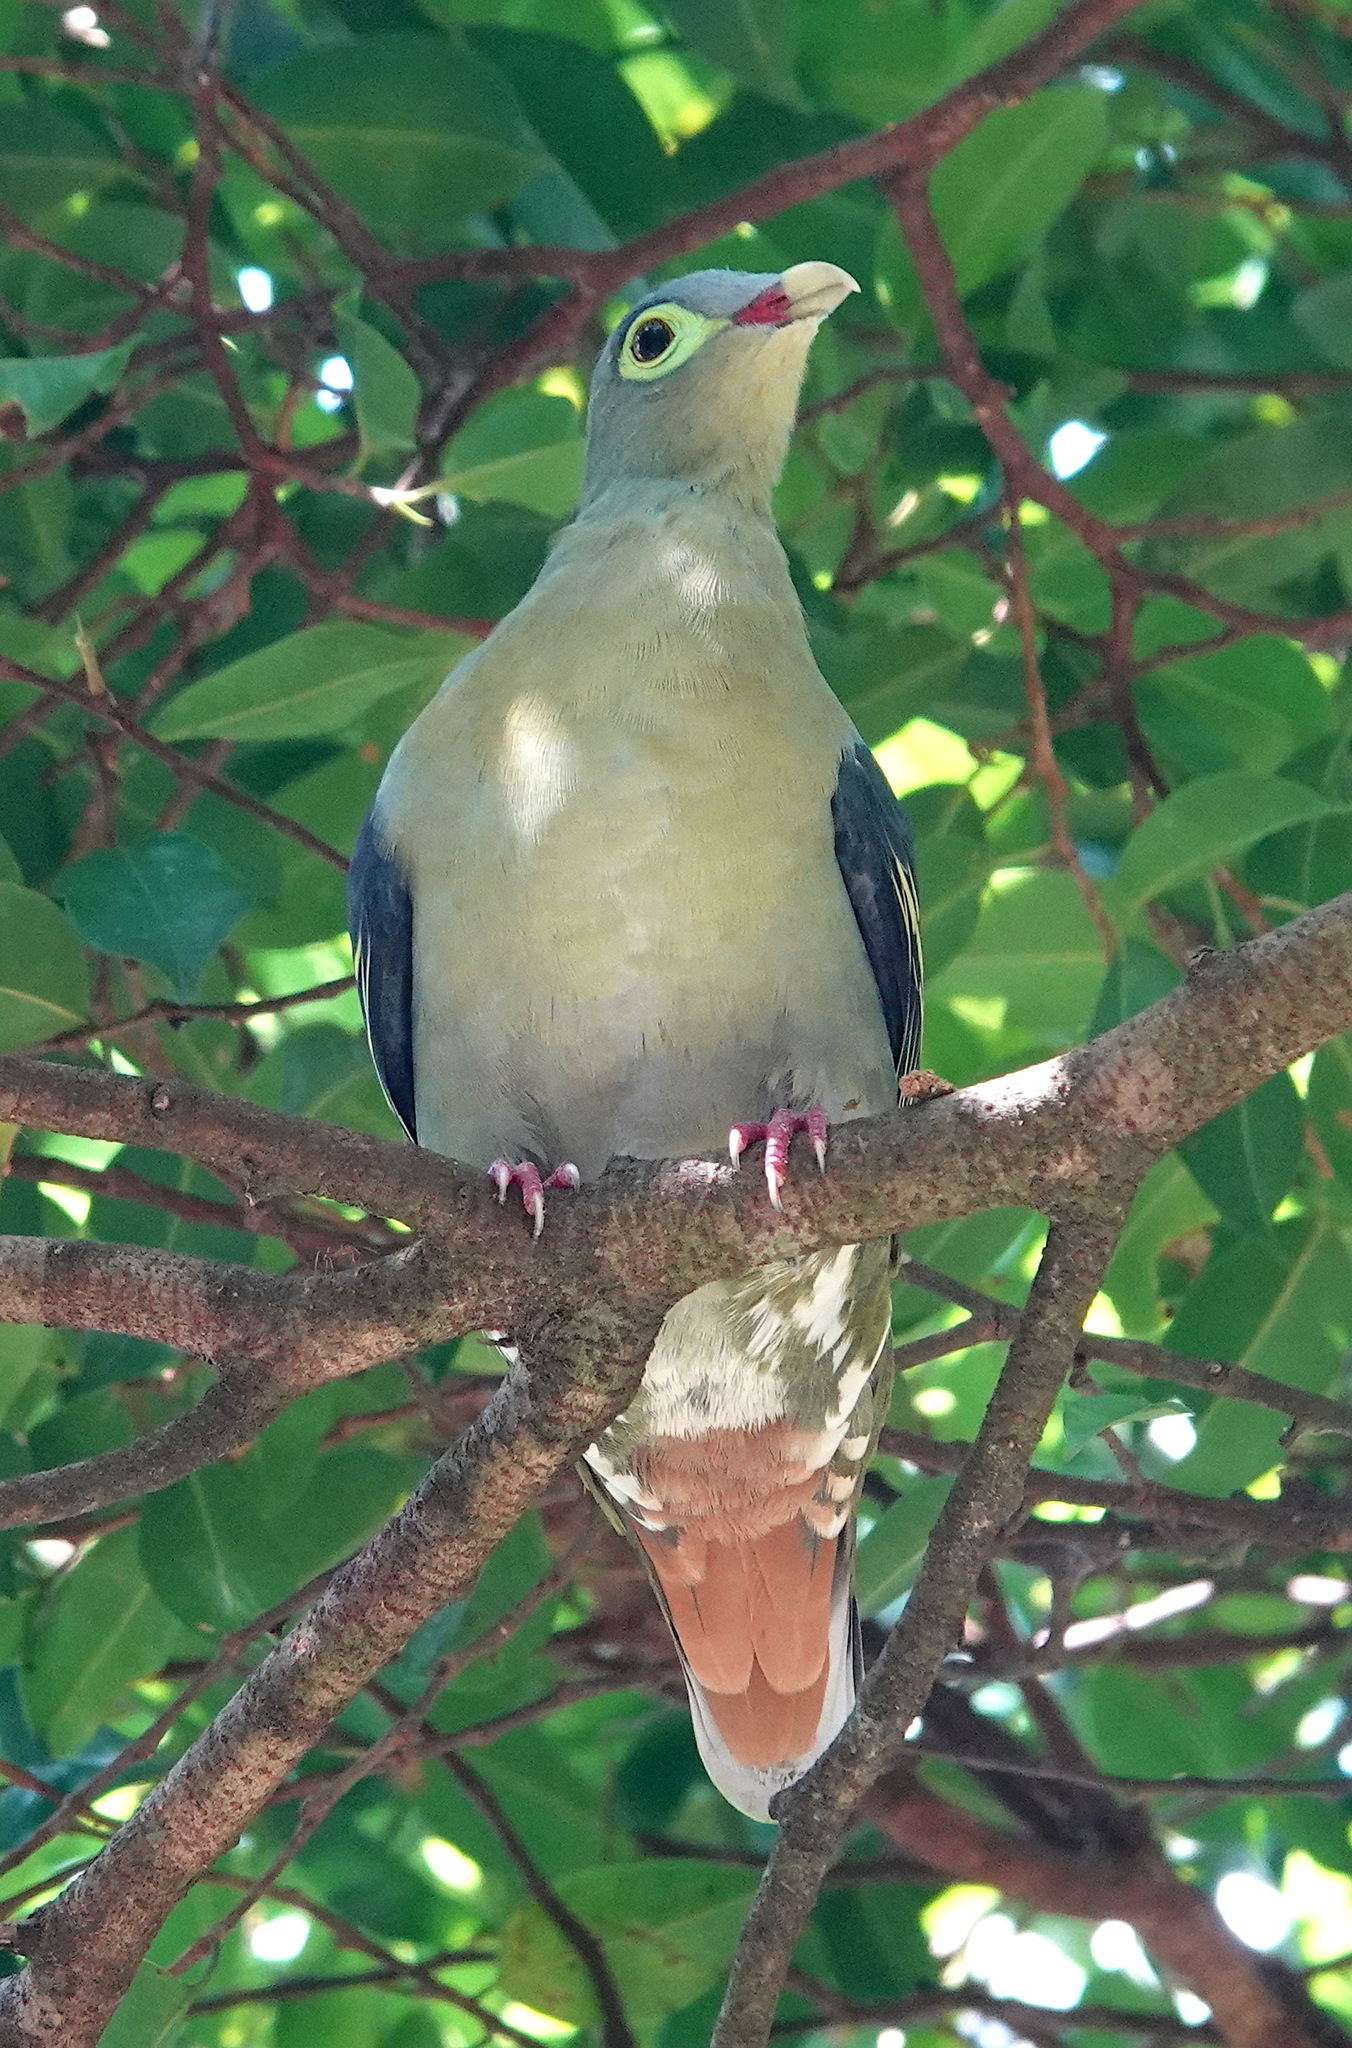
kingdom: Animalia
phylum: Chordata
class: Aves
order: Columbiformes
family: Columbidae
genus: Treron
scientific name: Treron curvirostra
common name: Thick-billed green pigeon
